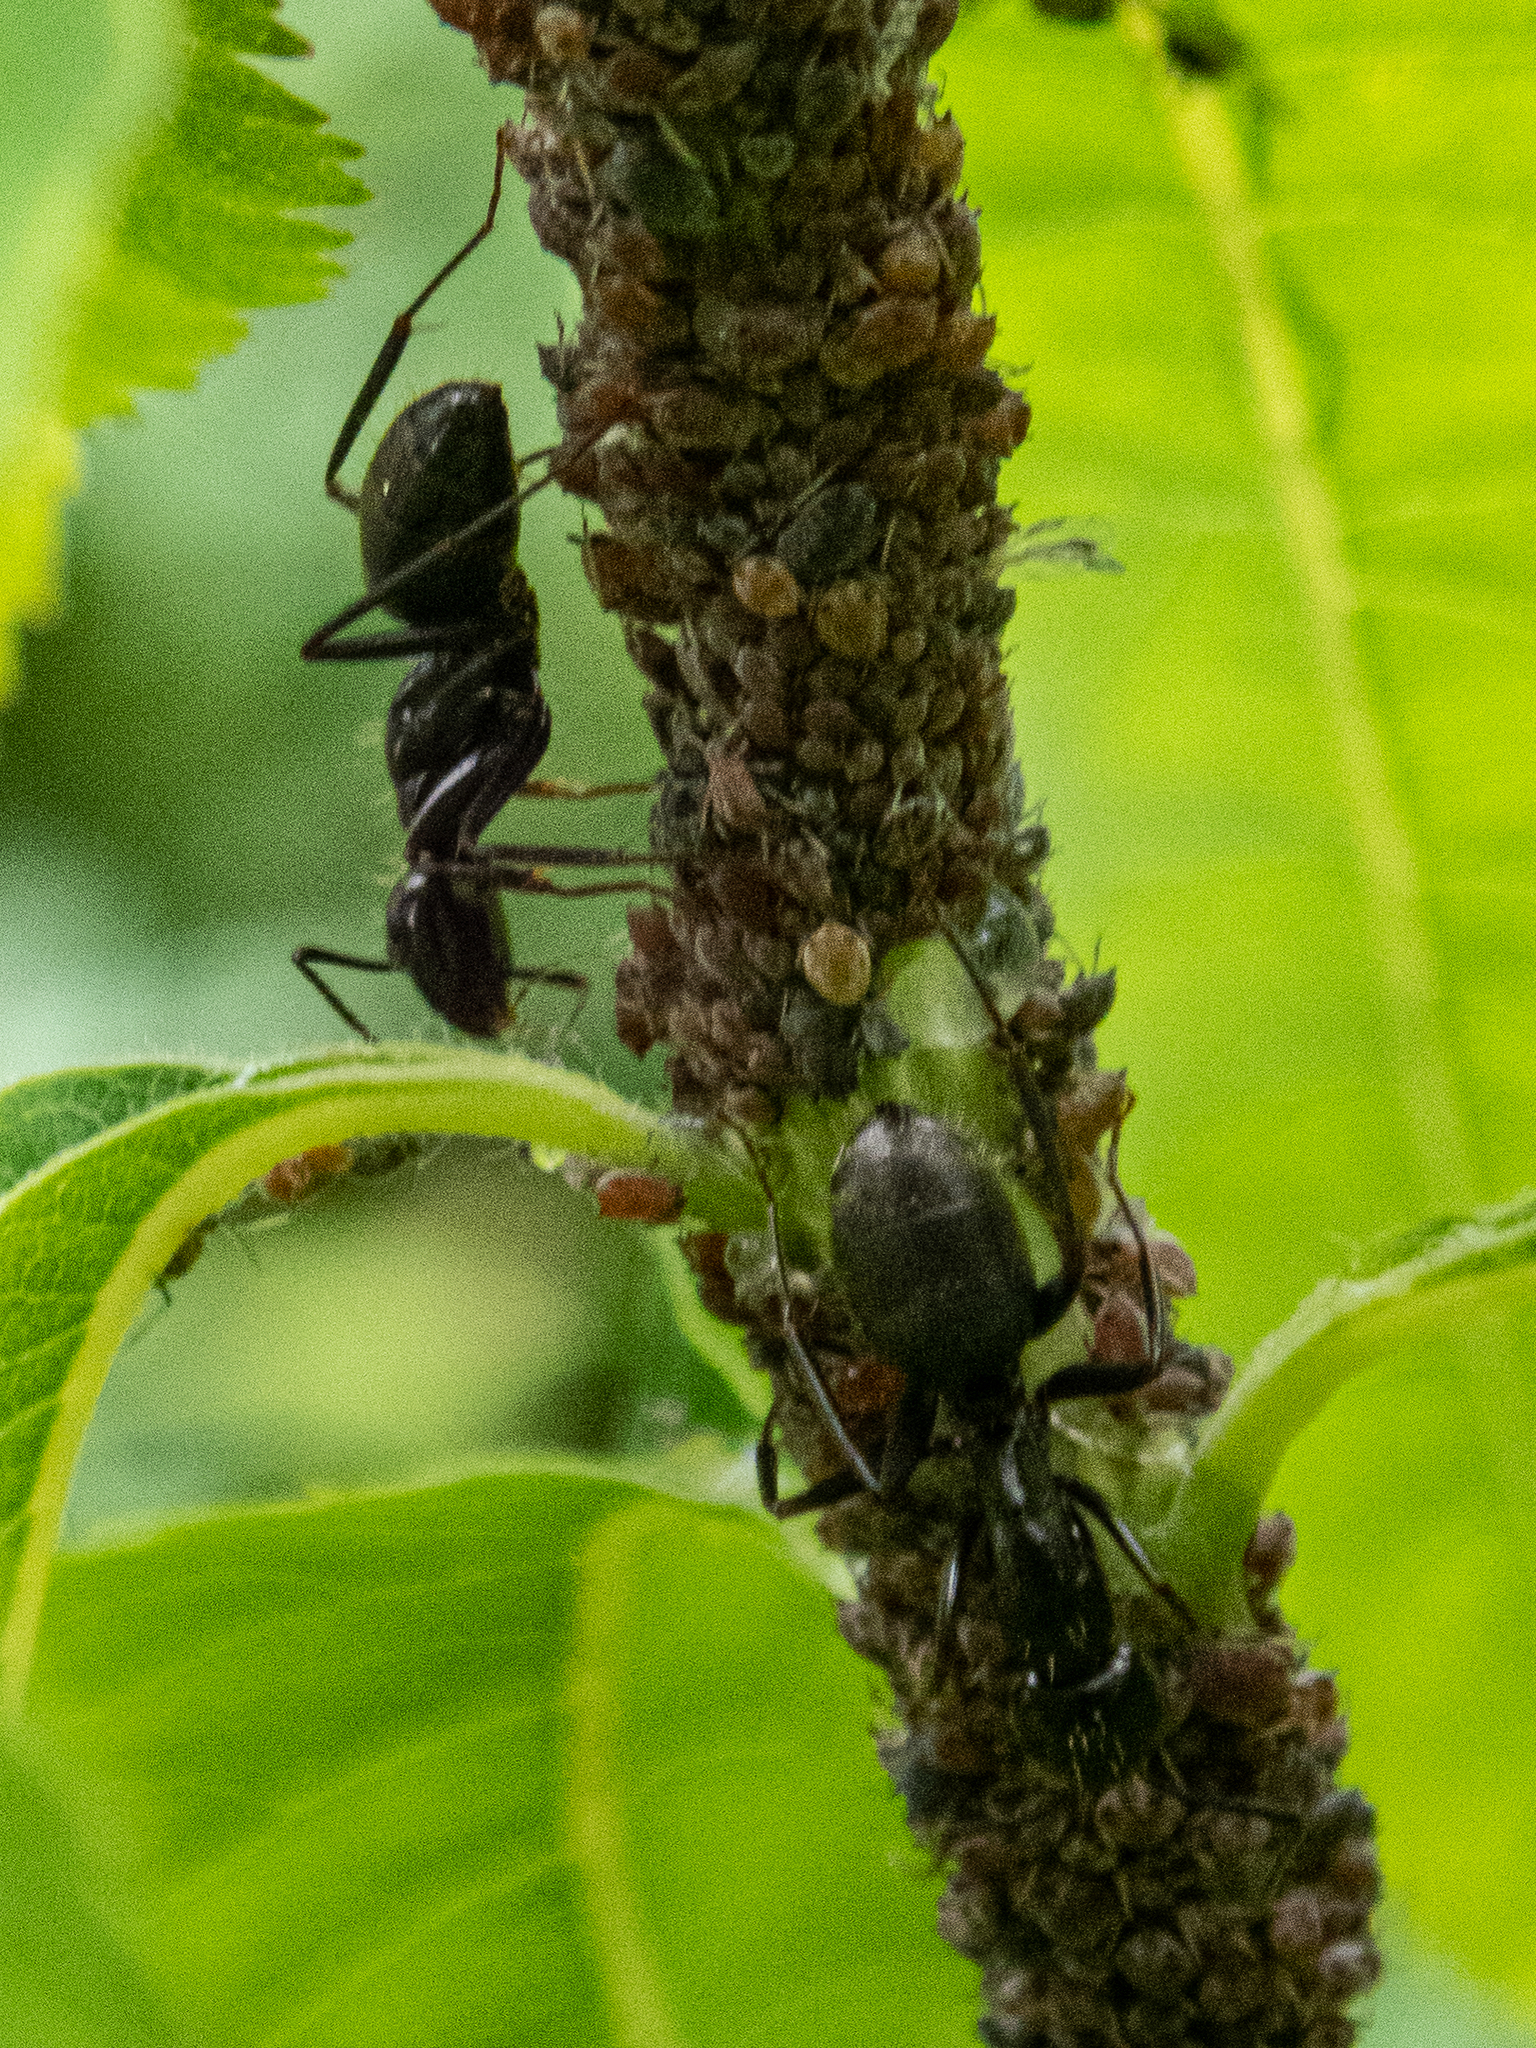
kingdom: Animalia
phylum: Arthropoda
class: Insecta
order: Hymenoptera
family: Formicidae
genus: Camponotus
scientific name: Camponotus pennsylvanicus
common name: Black carpenter ant
